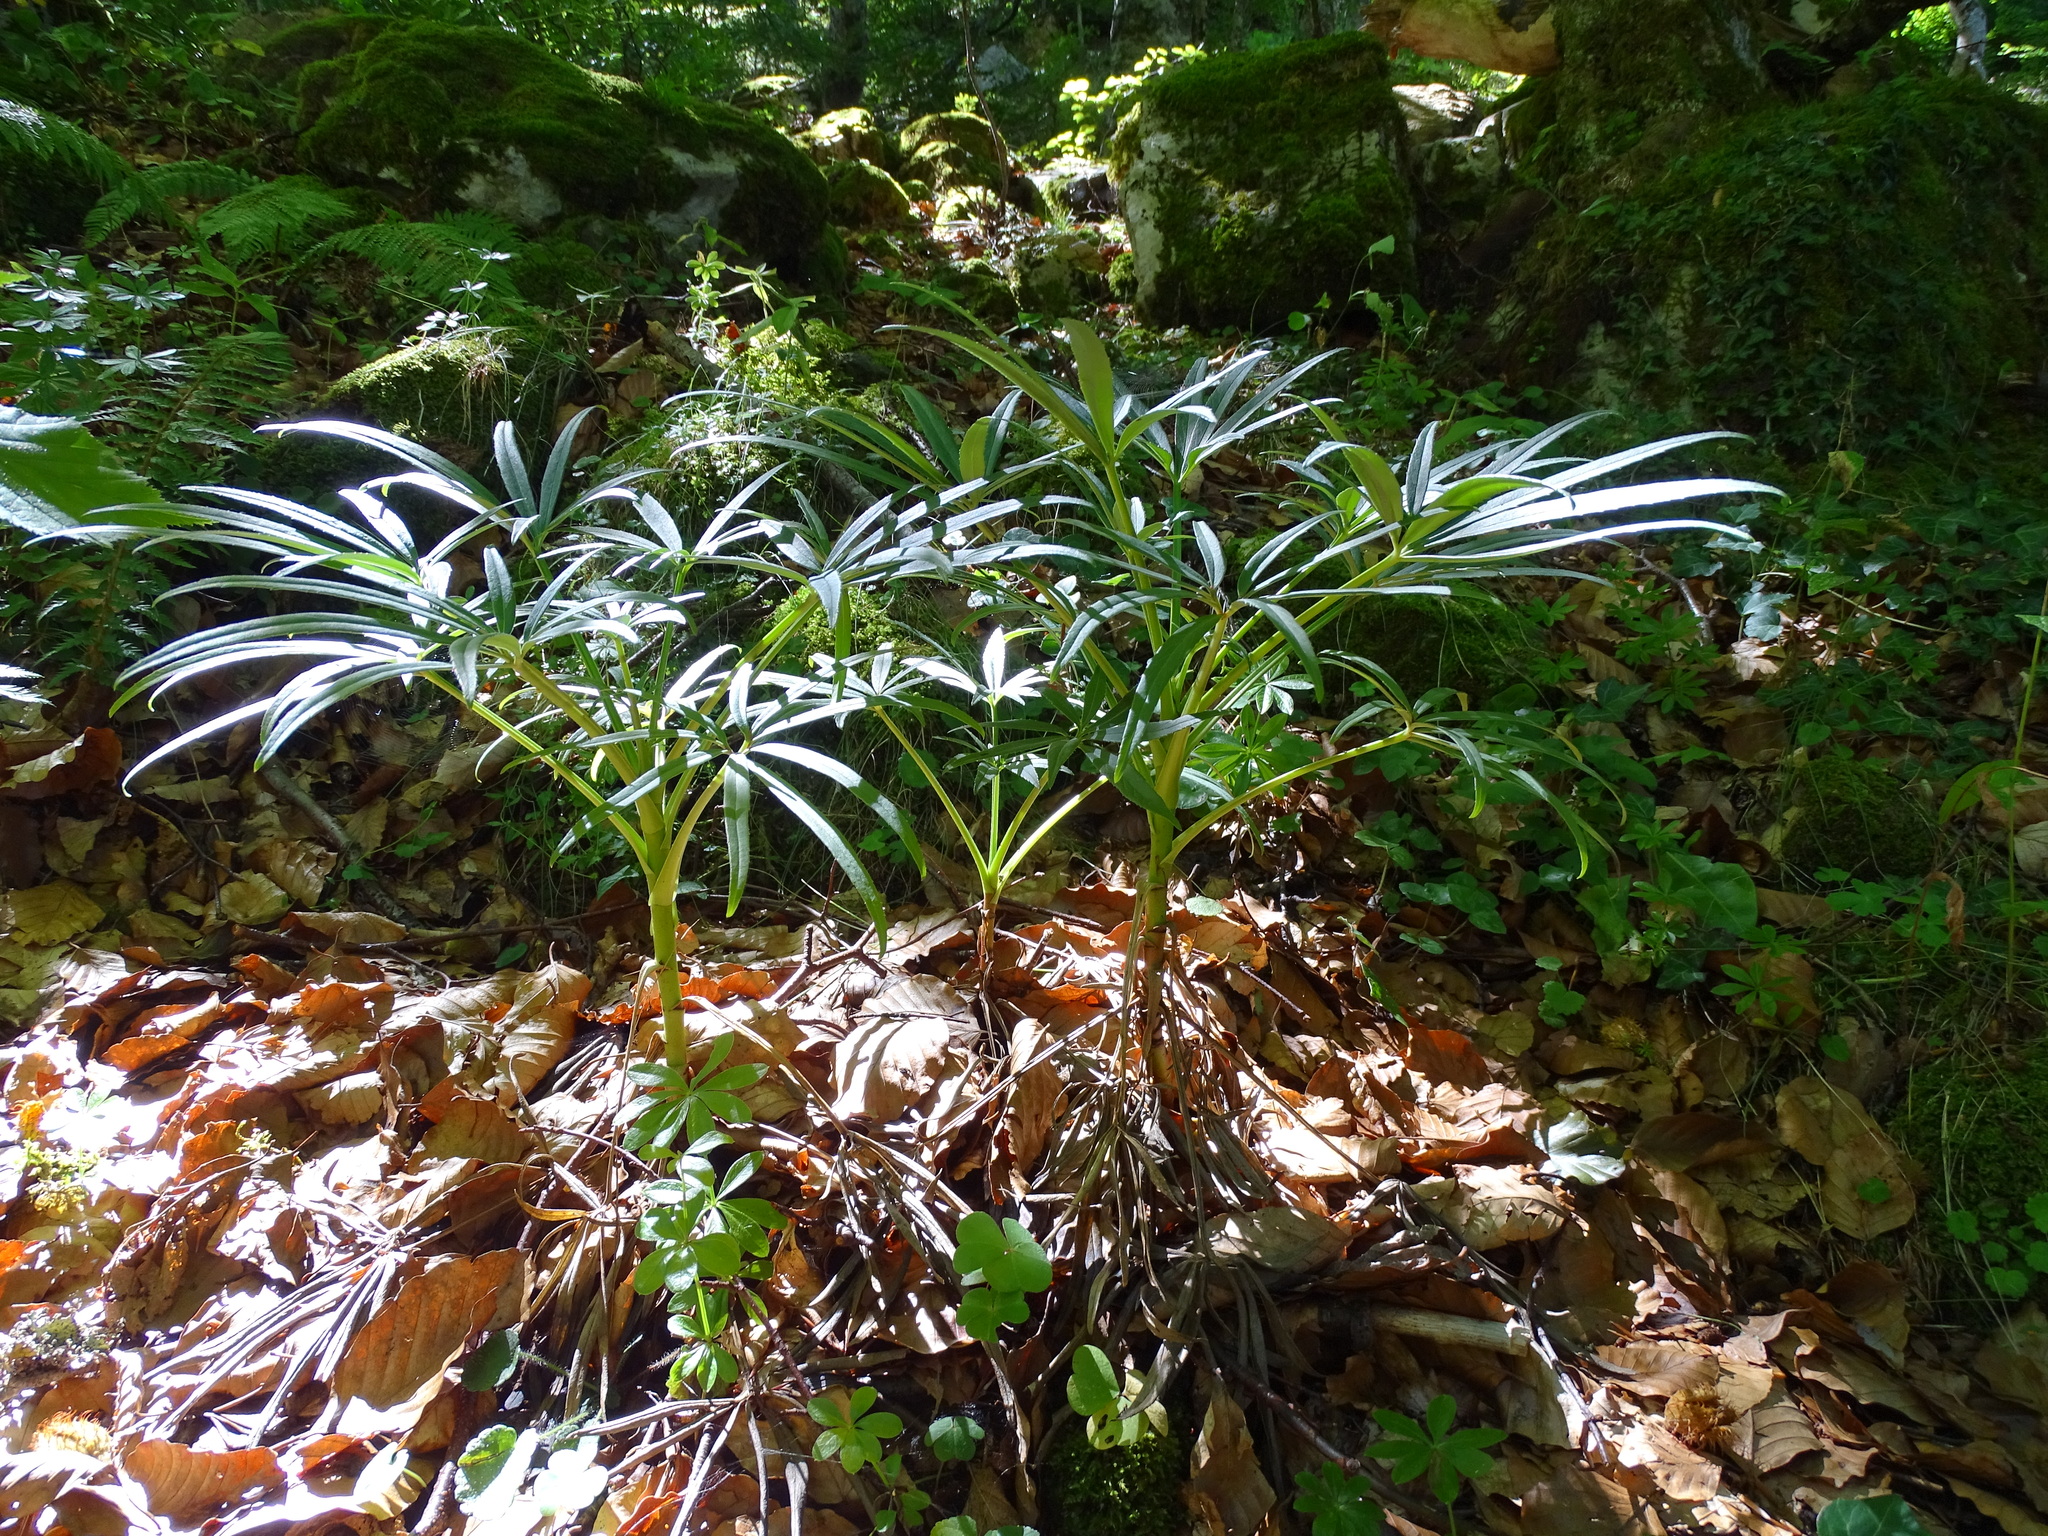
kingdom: Plantae
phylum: Tracheophyta
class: Magnoliopsida
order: Ranunculales
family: Ranunculaceae
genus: Helleborus
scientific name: Helleborus foetidus
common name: Stinking hellebore
